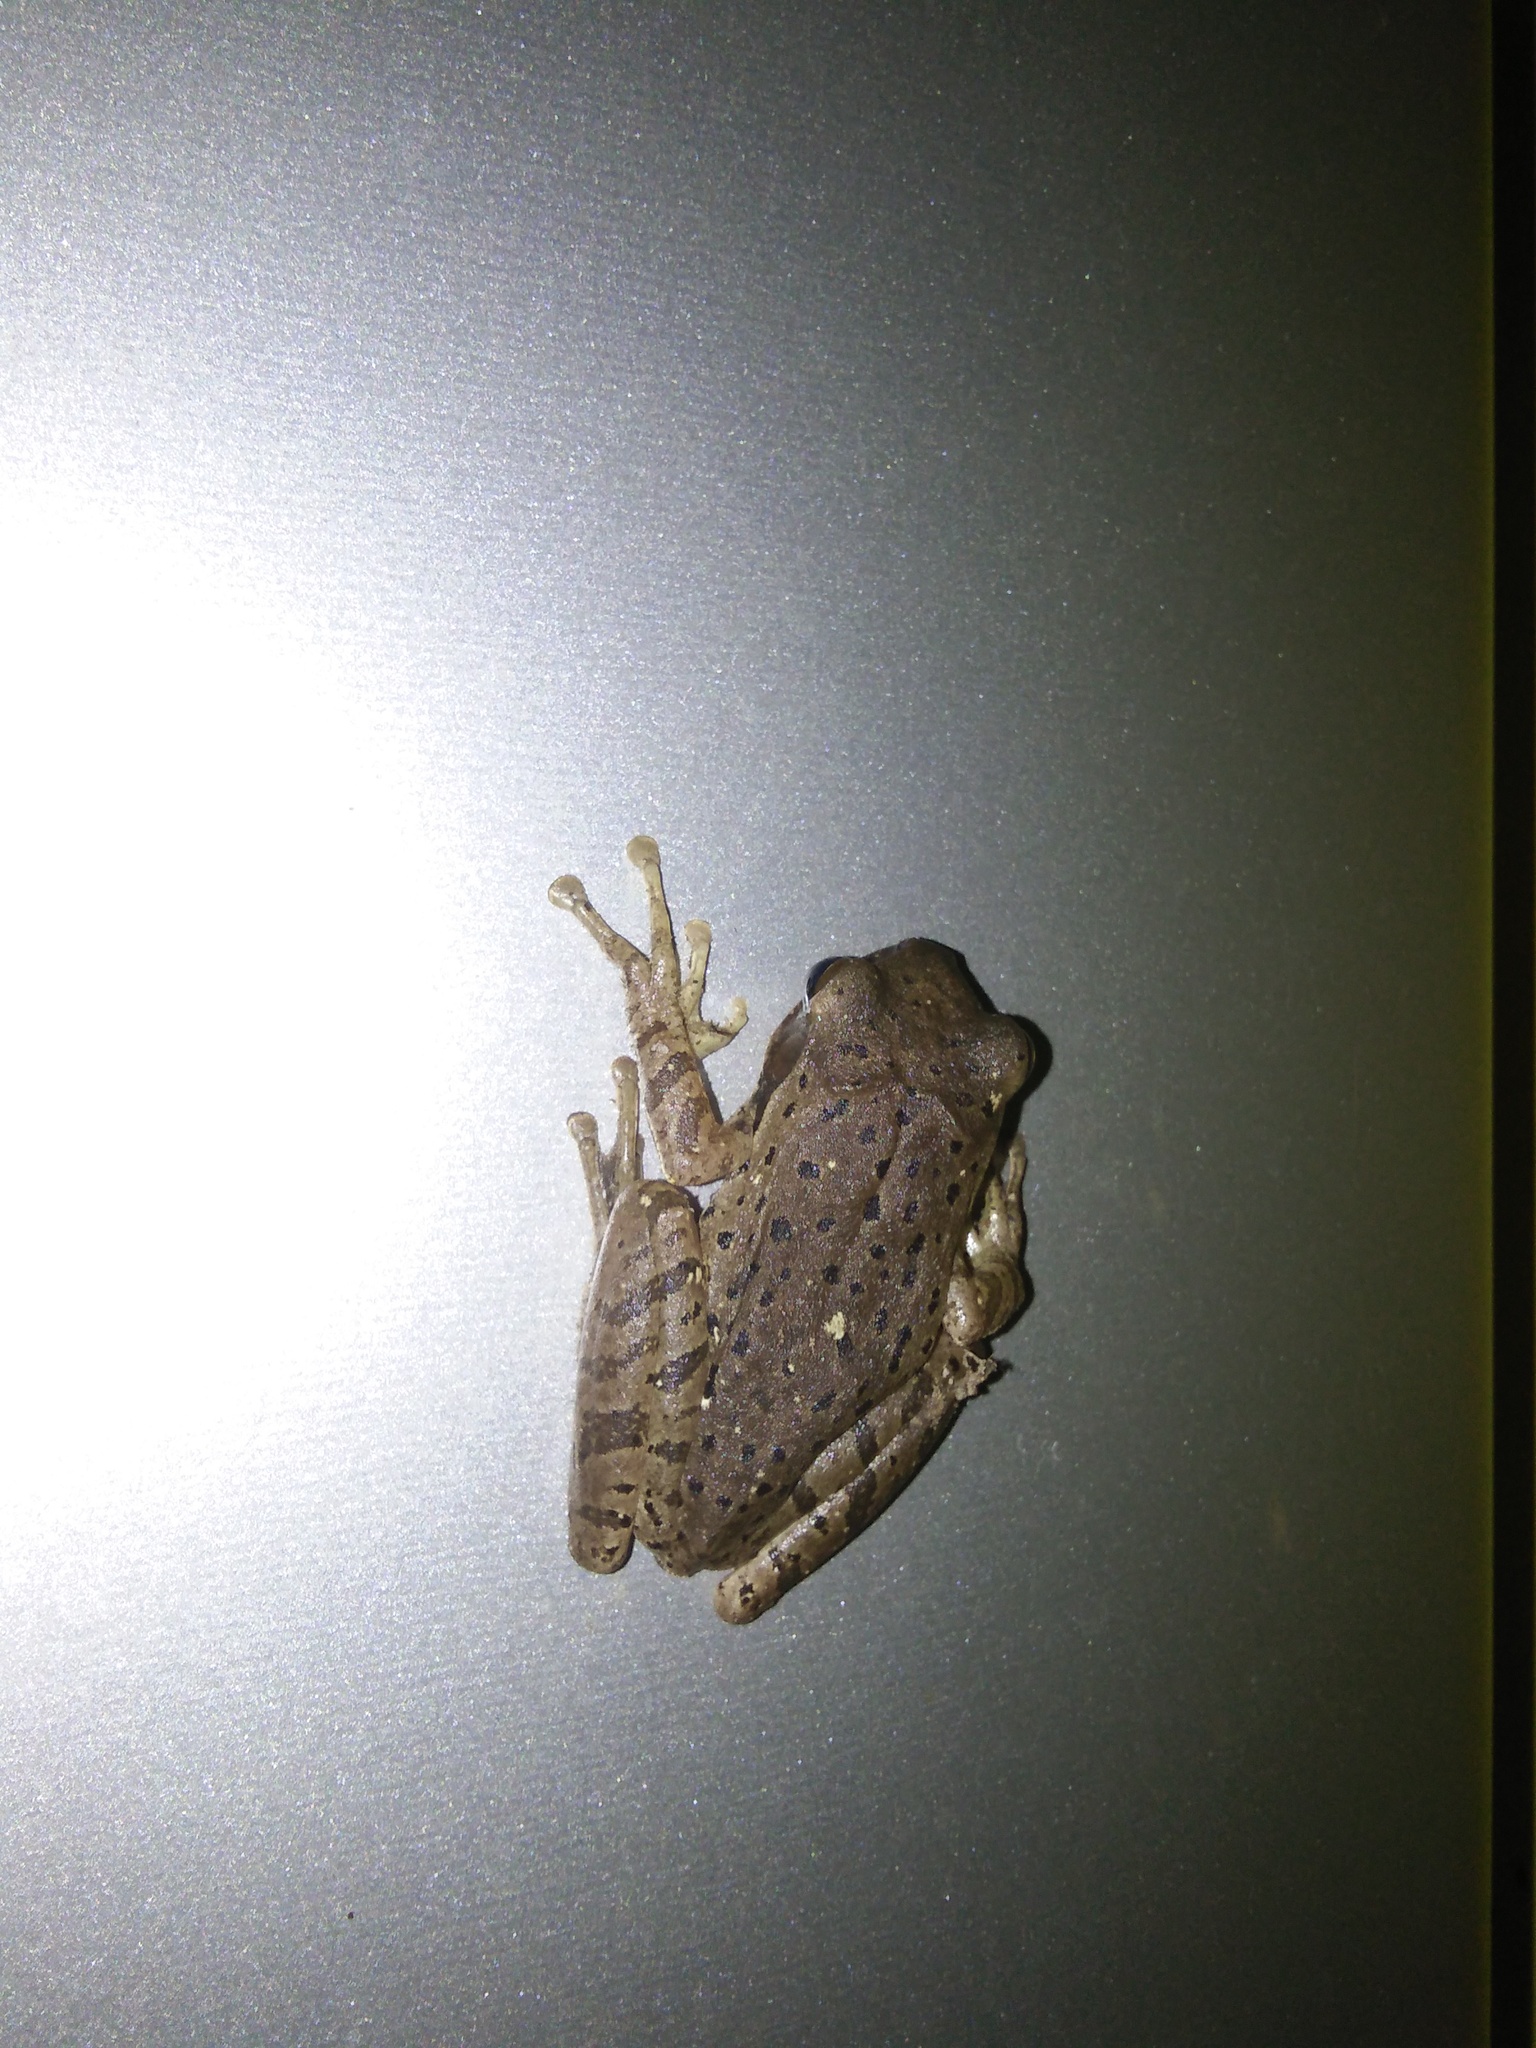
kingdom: Animalia
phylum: Chordata
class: Amphibia
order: Anura
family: Rhacophoridae
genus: Polypedates
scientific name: Polypedates maculatus
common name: Himalayan tree frog
